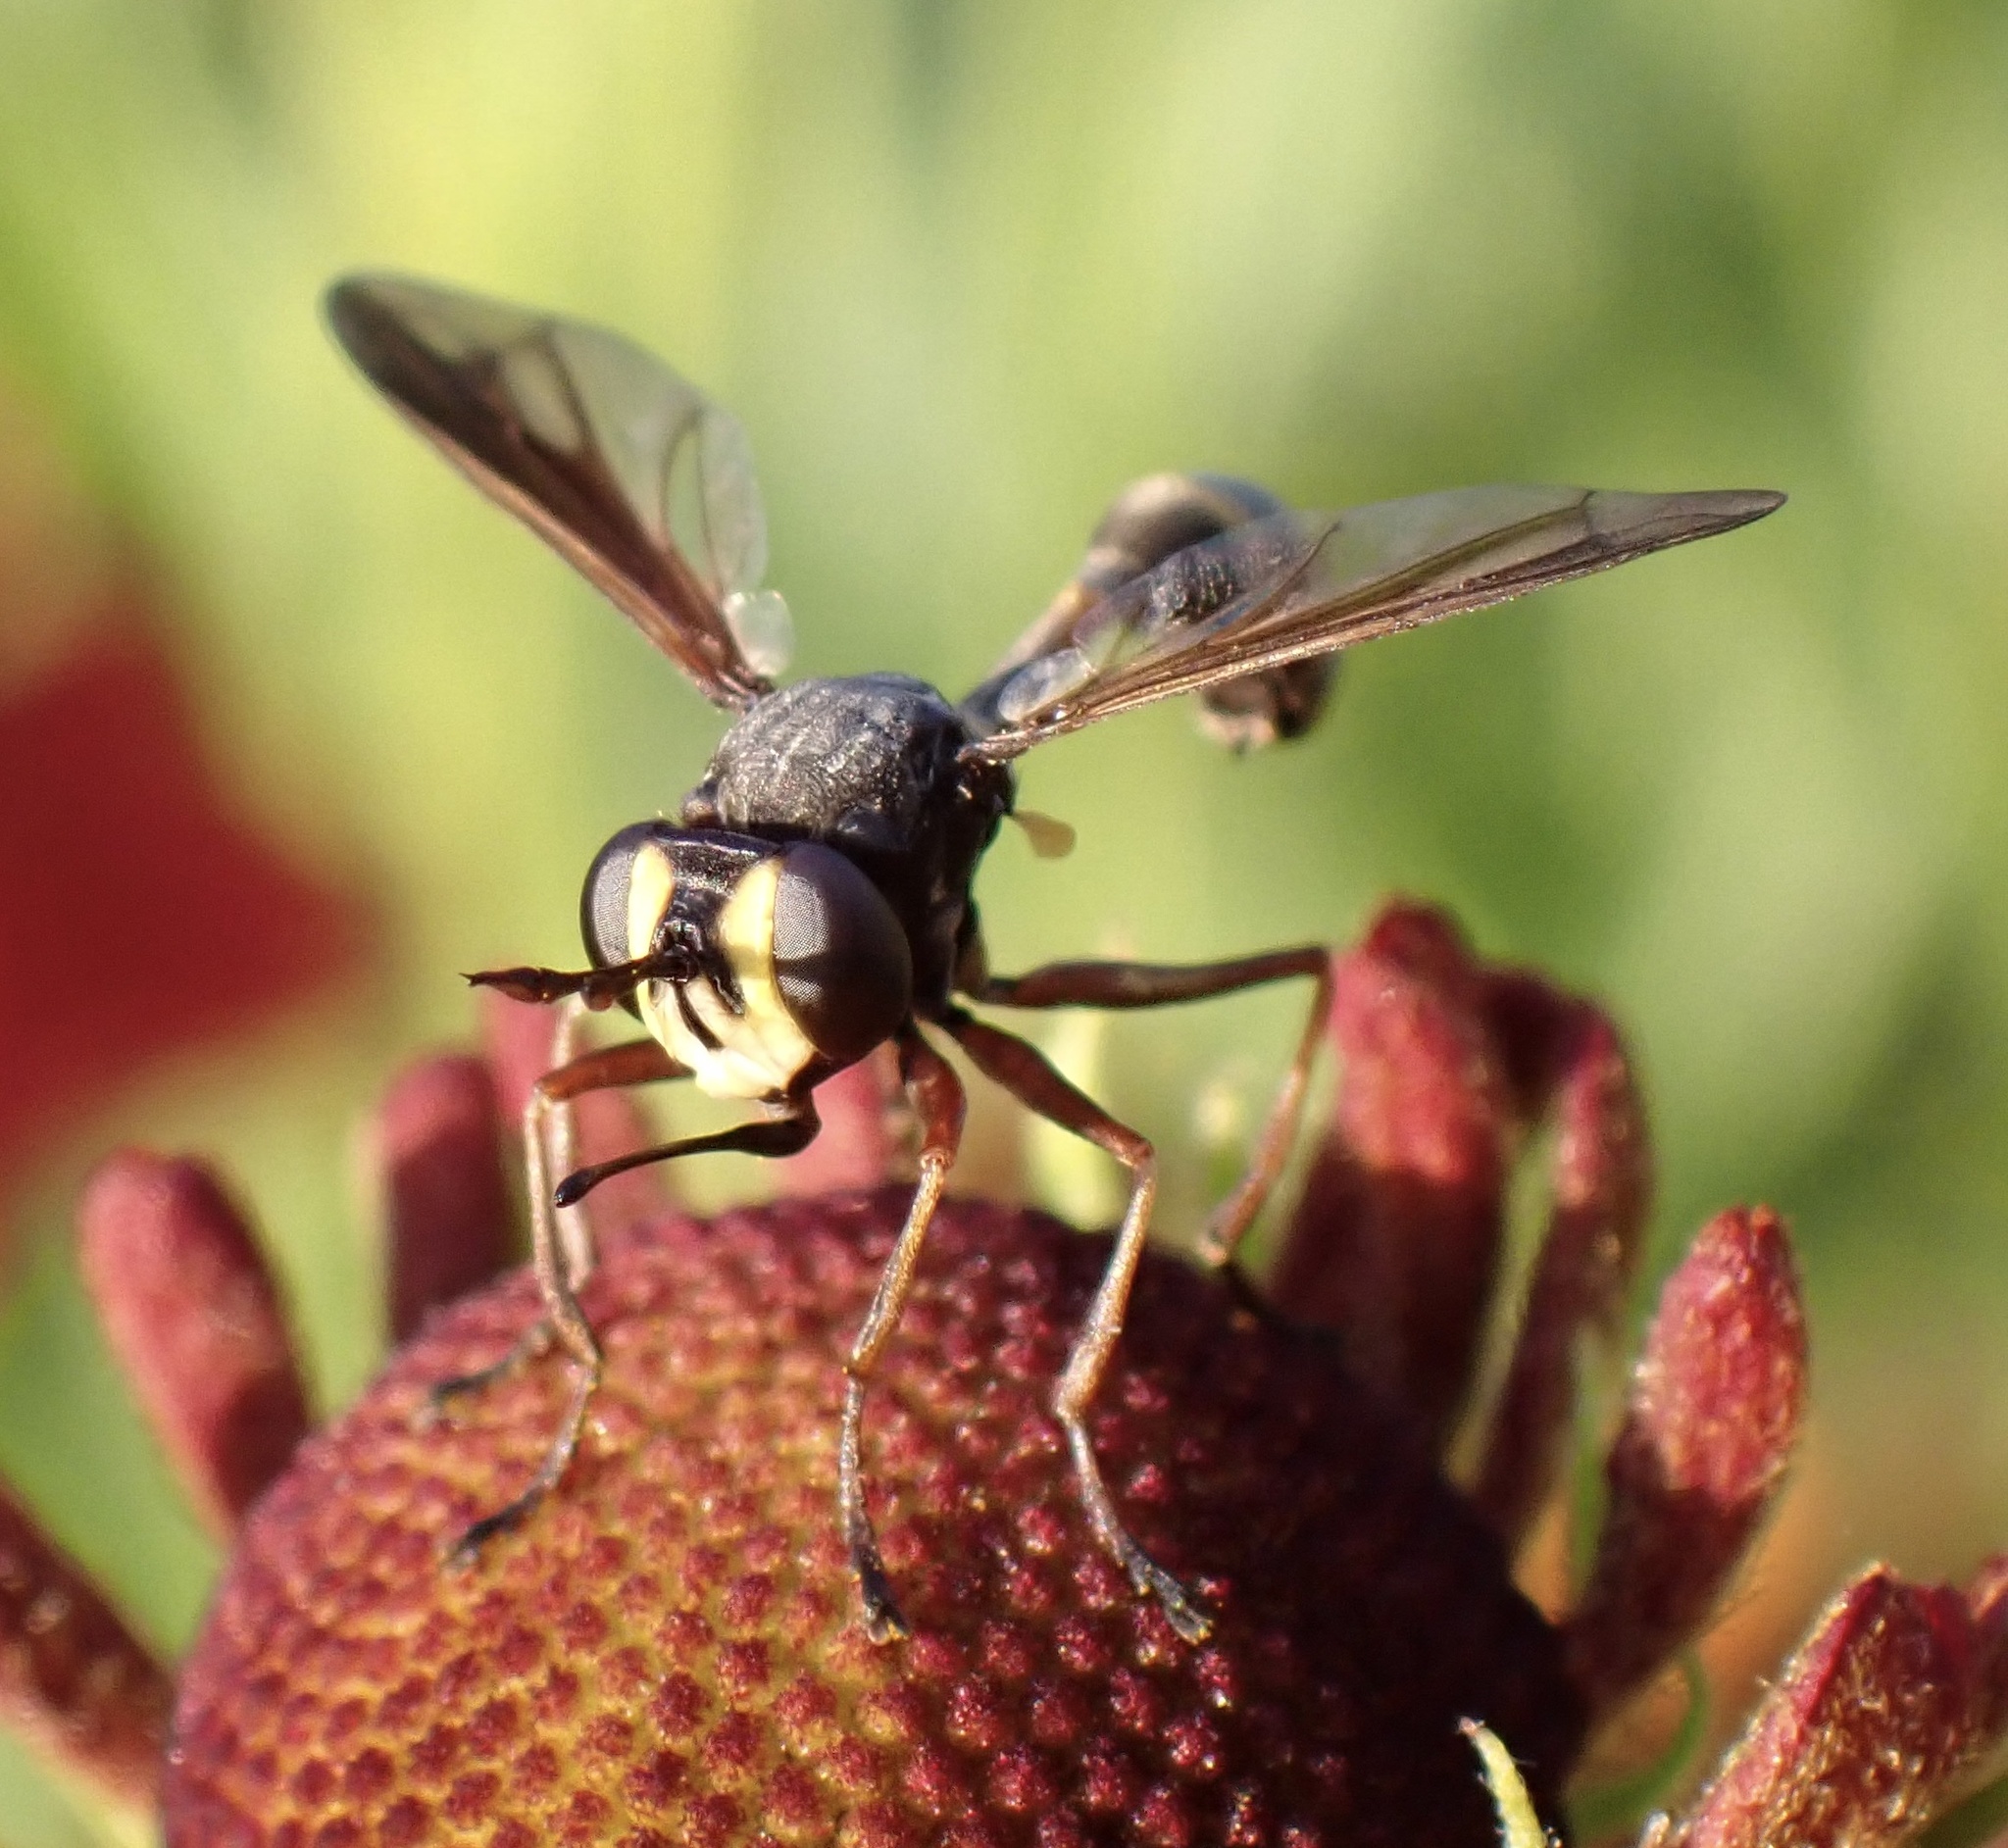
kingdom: Animalia
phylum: Arthropoda
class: Insecta
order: Diptera
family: Conopidae
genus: Physocephala
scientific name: Physocephala rufipes
